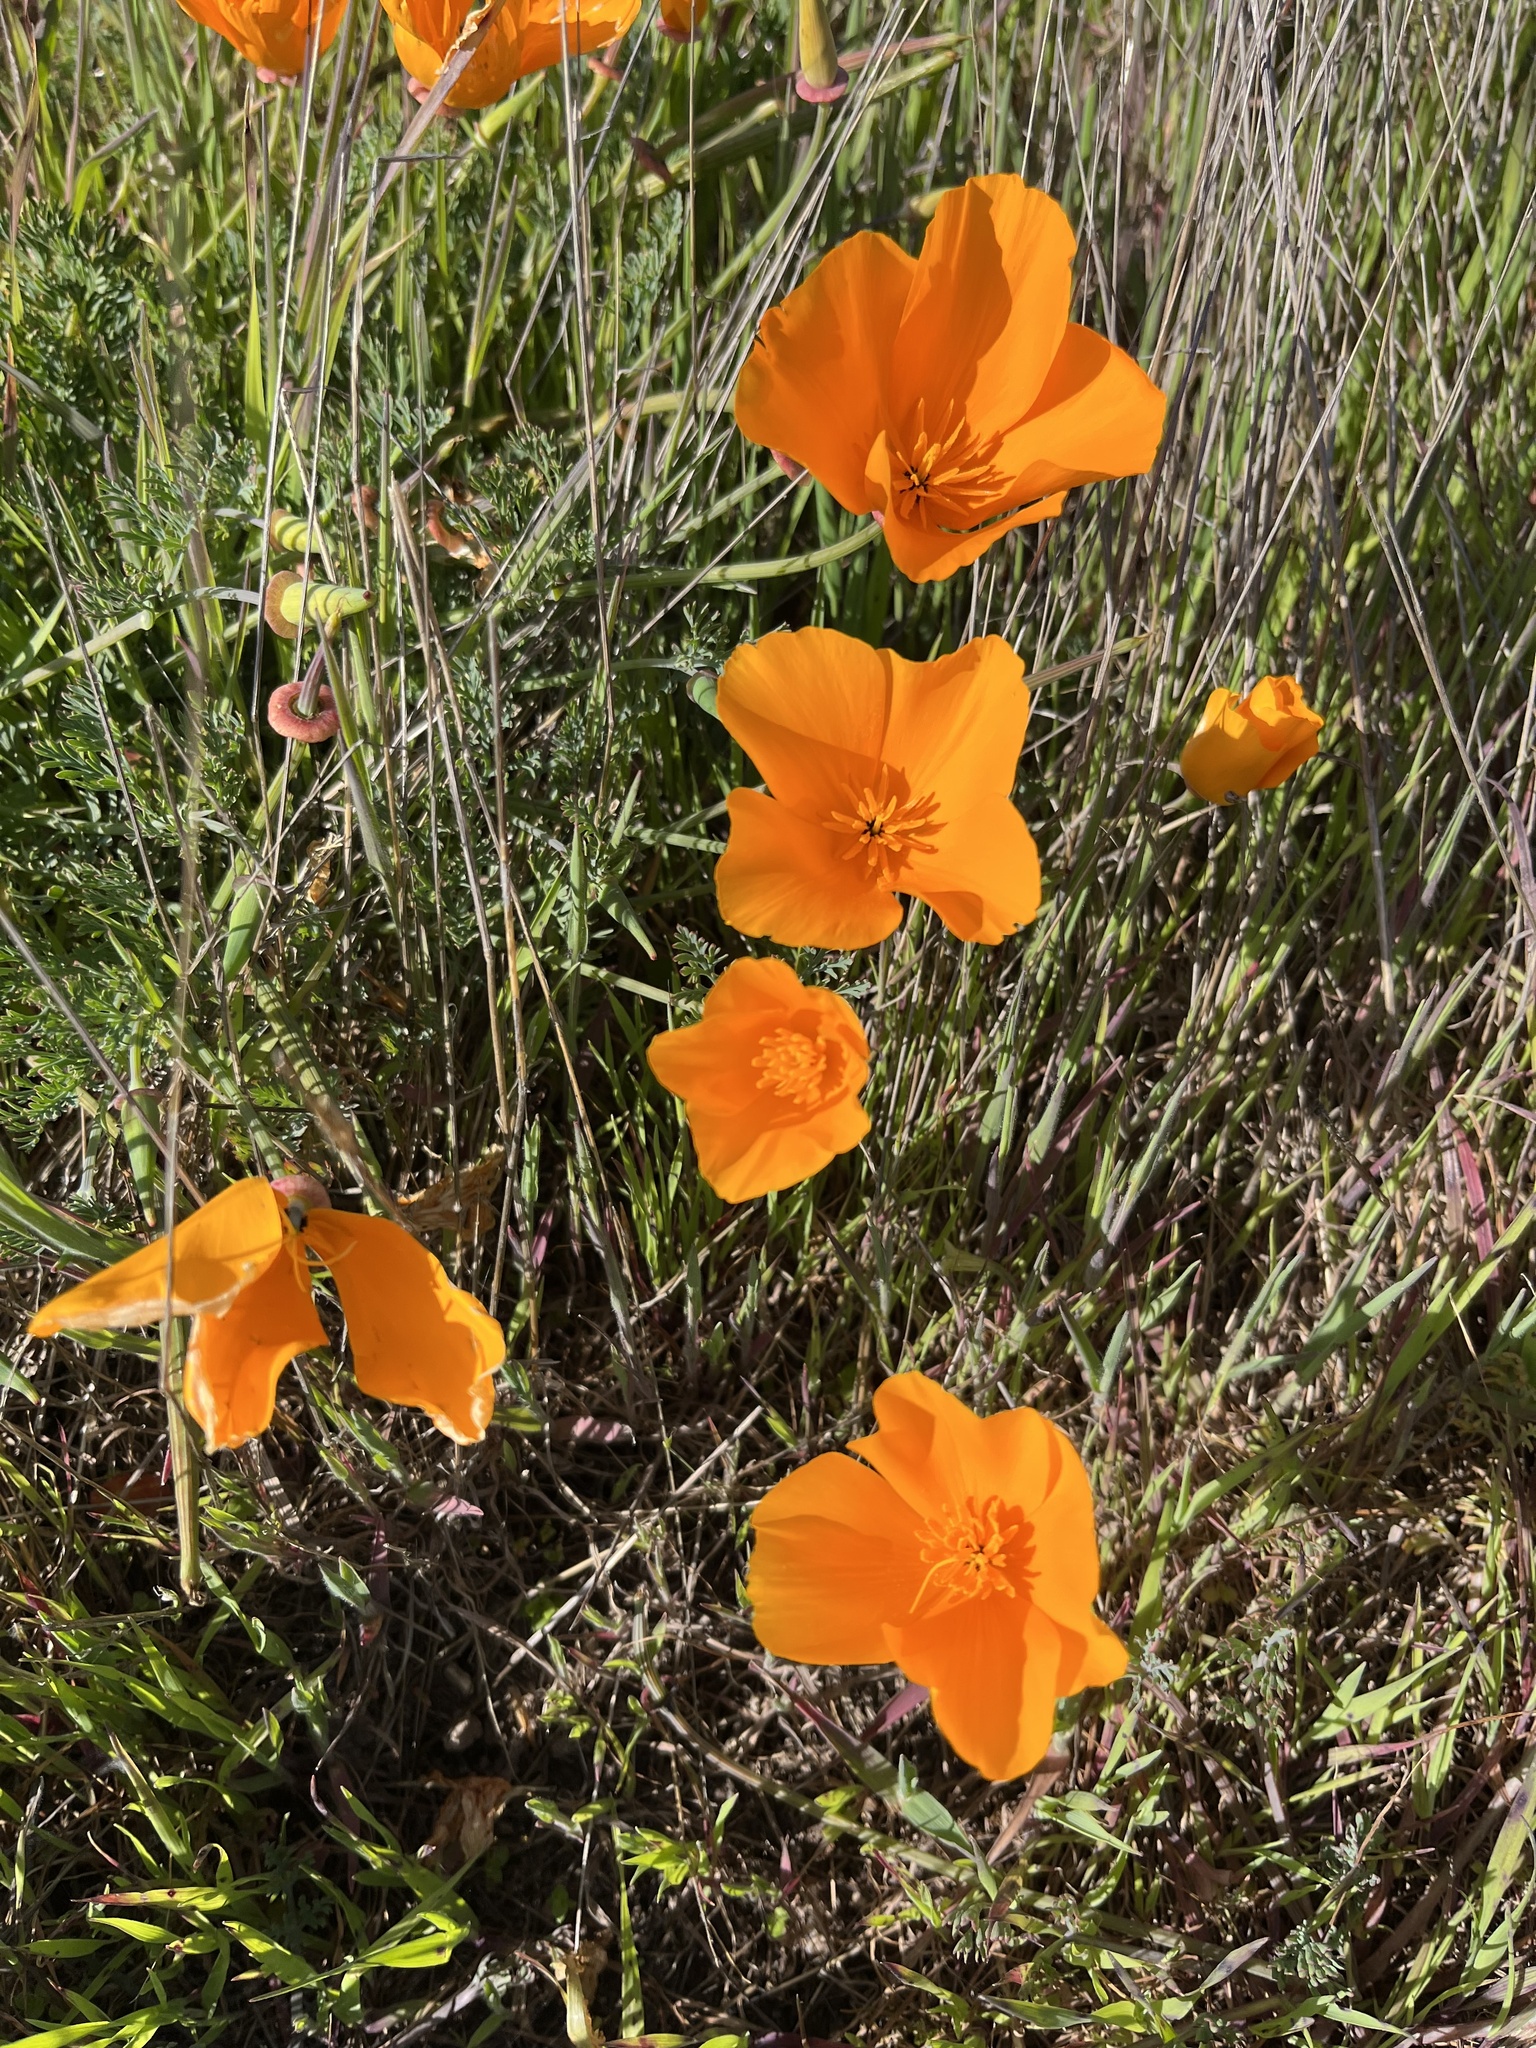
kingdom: Plantae
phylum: Tracheophyta
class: Magnoliopsida
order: Ranunculales
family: Papaveraceae
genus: Eschscholzia
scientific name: Eschscholzia californica
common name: California poppy
